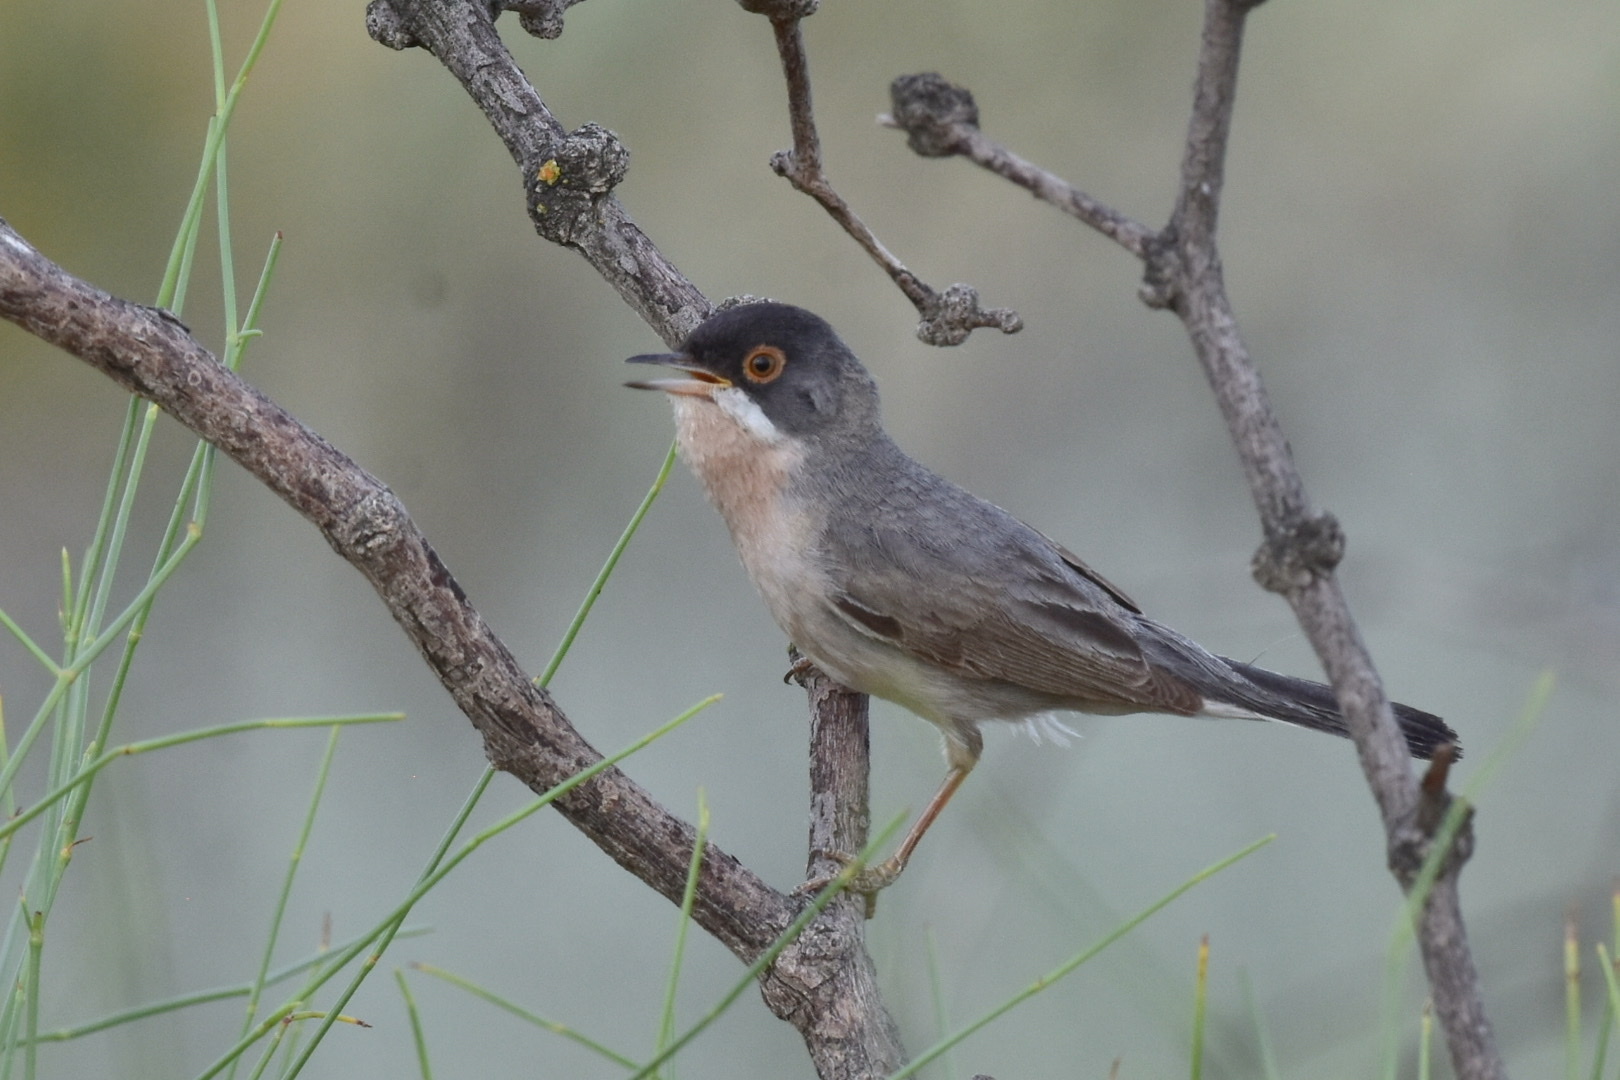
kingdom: Animalia
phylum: Chordata
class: Aves
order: Passeriformes
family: Sylviidae
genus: Sylvia
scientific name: Sylvia mystacea
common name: Menetries's warbler
